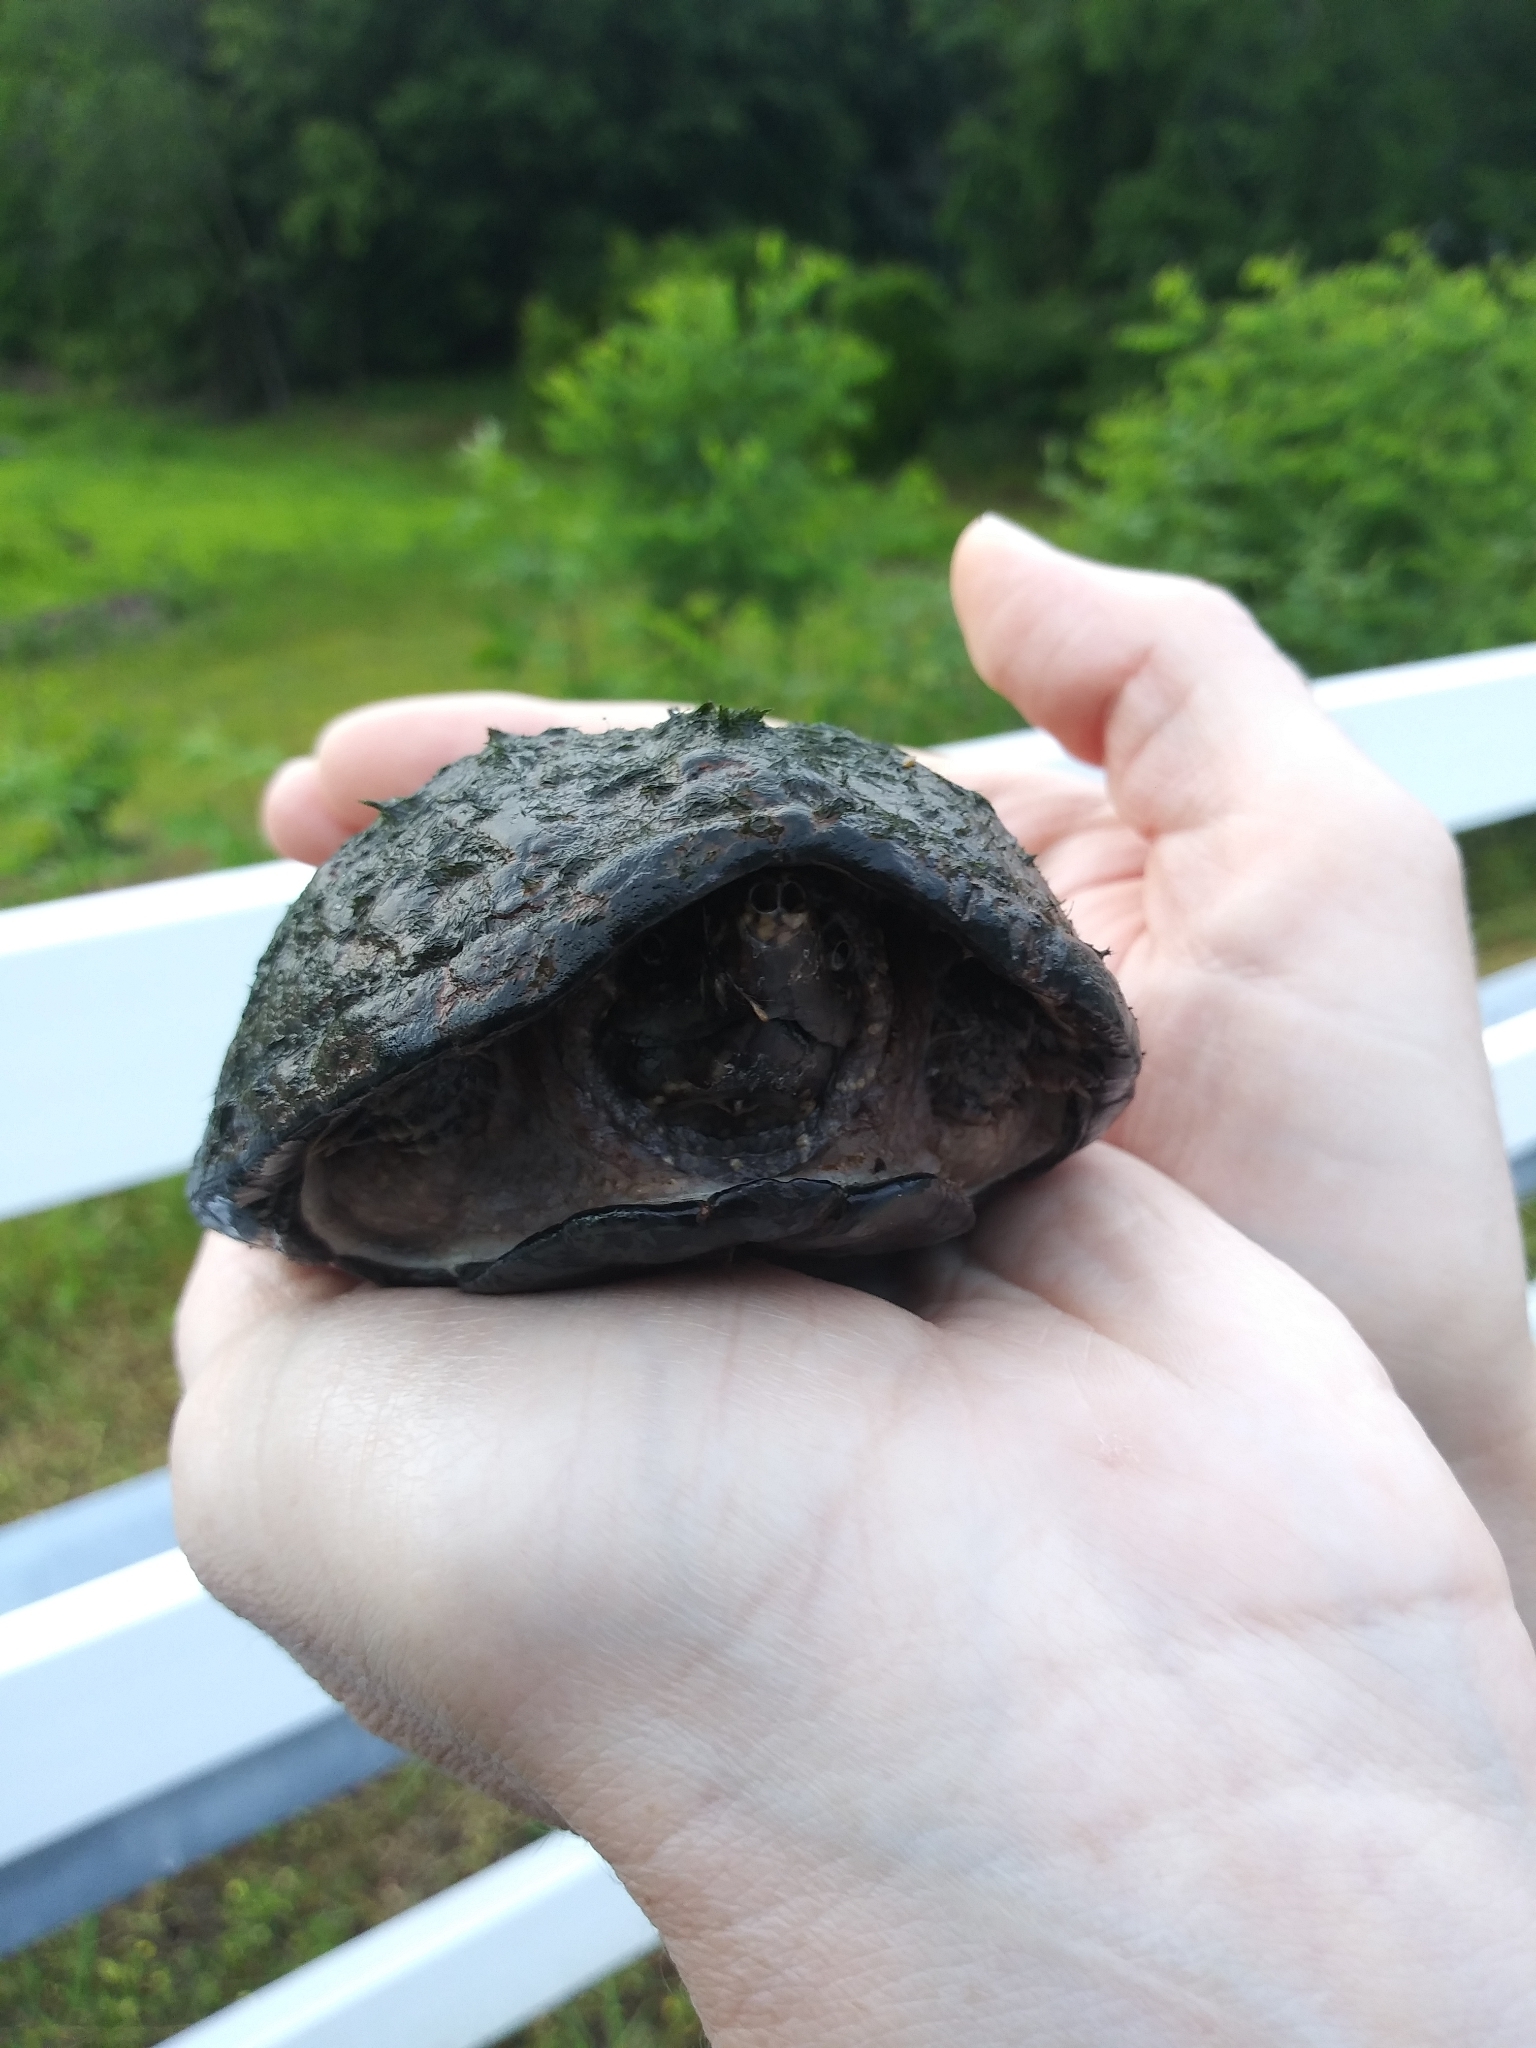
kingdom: Animalia
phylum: Chordata
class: Testudines
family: Kinosternidae
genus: Sternotherus
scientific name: Sternotherus odoratus
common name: Common musk turtle
